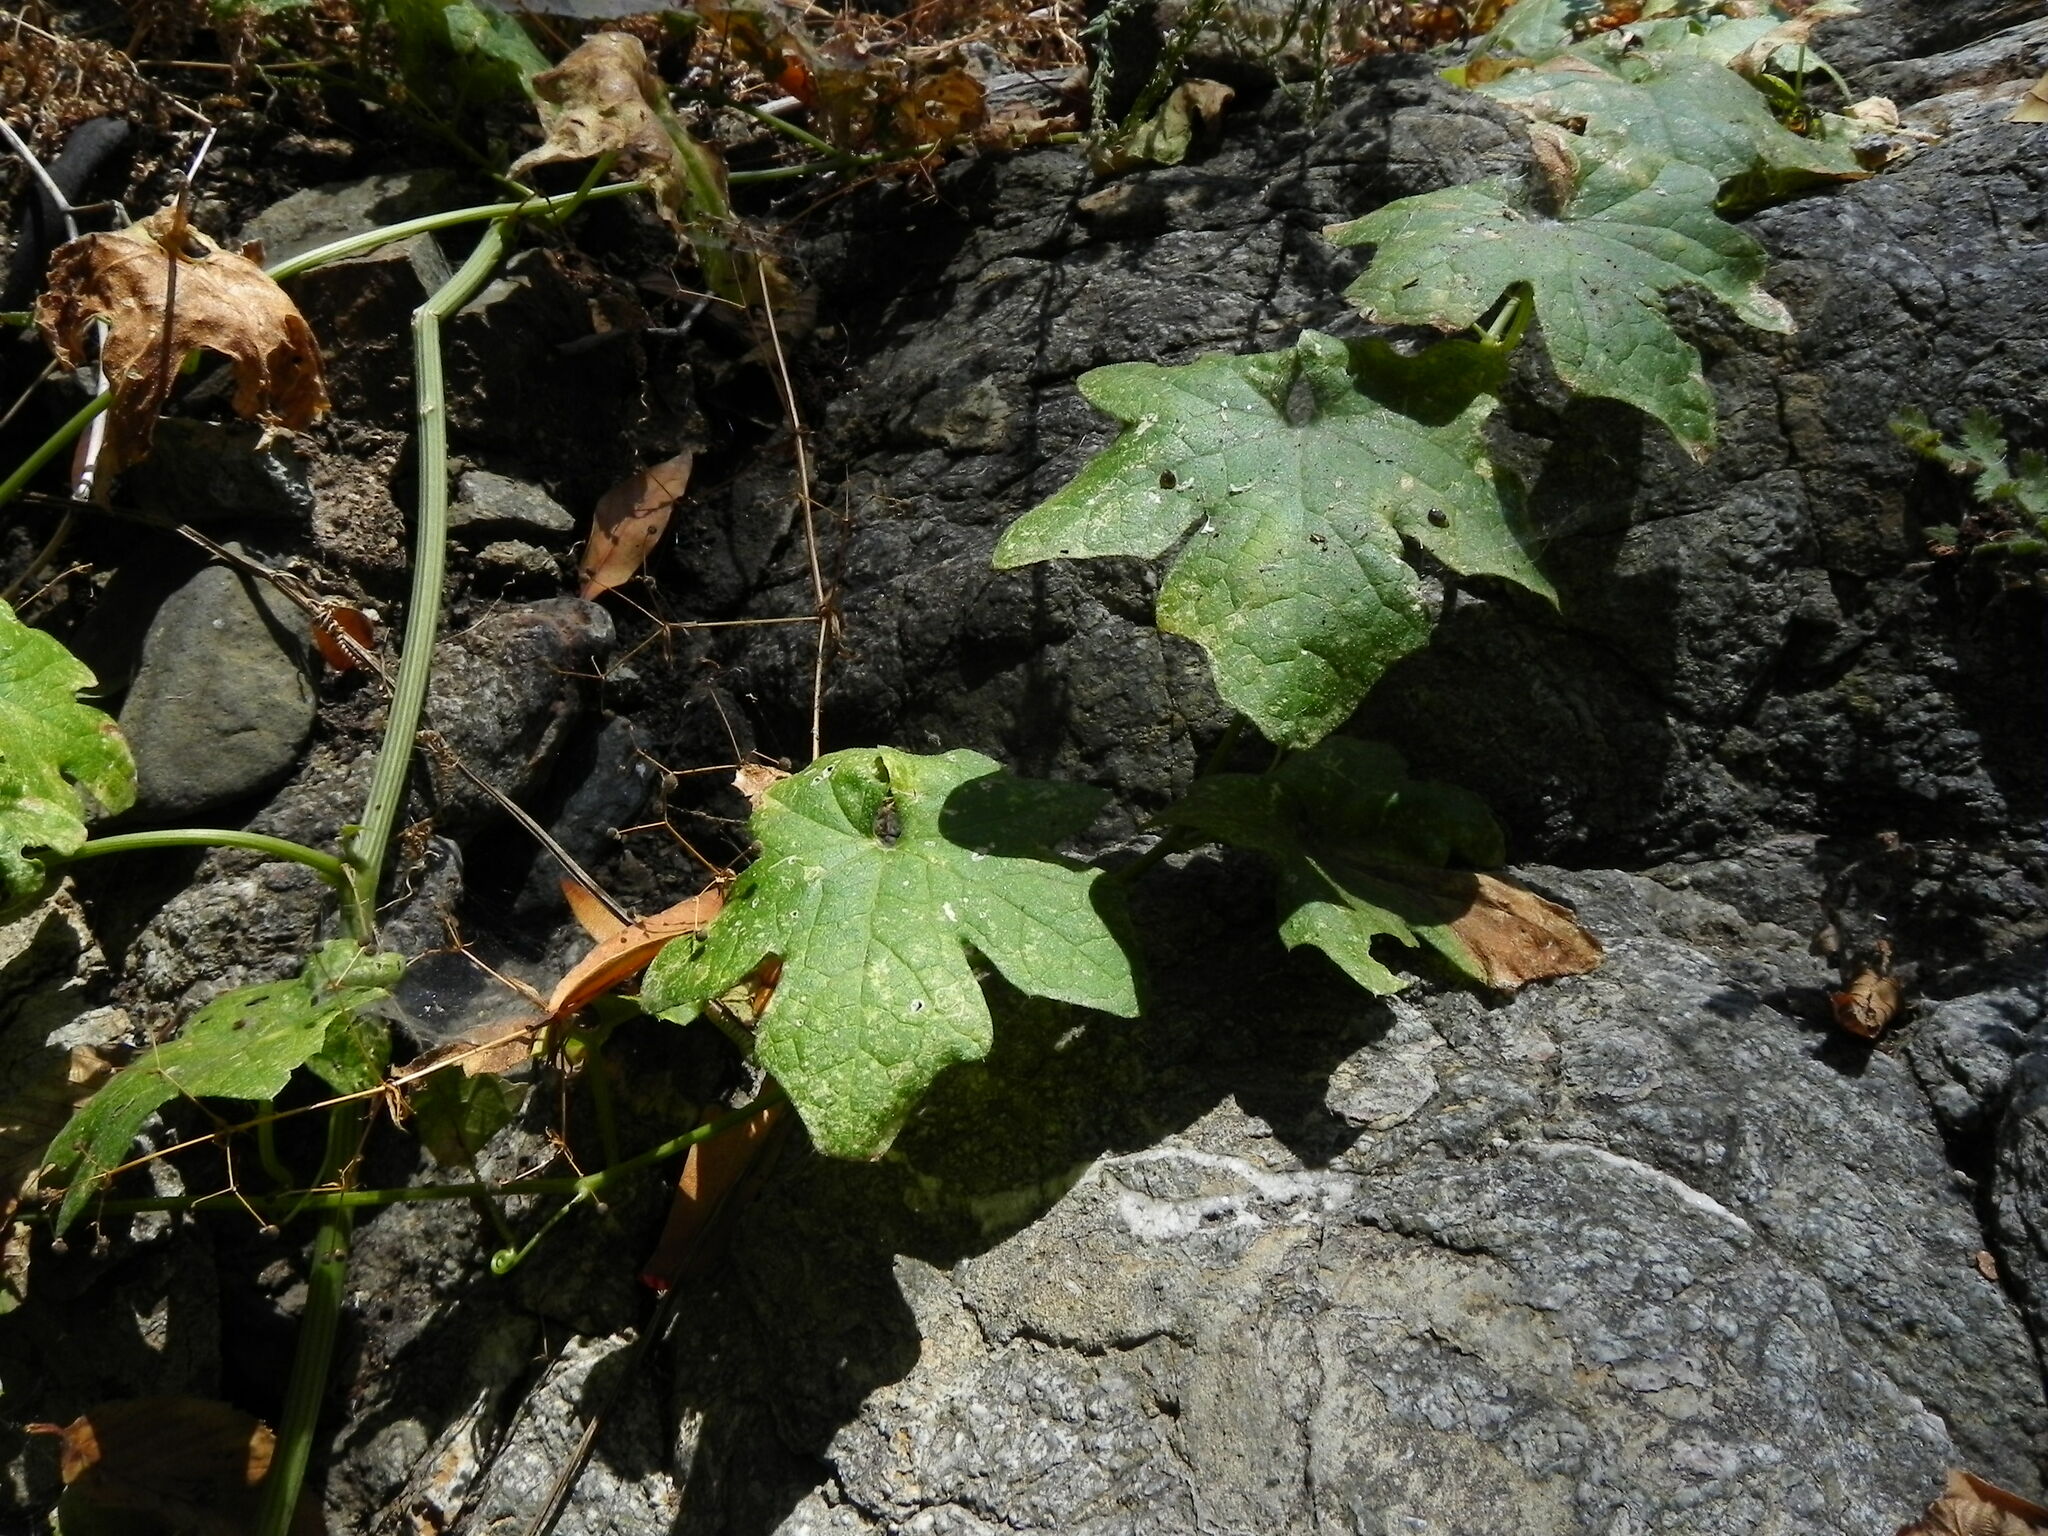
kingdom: Plantae
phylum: Tracheophyta
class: Magnoliopsida
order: Cucurbitales
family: Cucurbitaceae
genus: Marah
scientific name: Marah macrocarpa
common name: Cucamonga manroot
